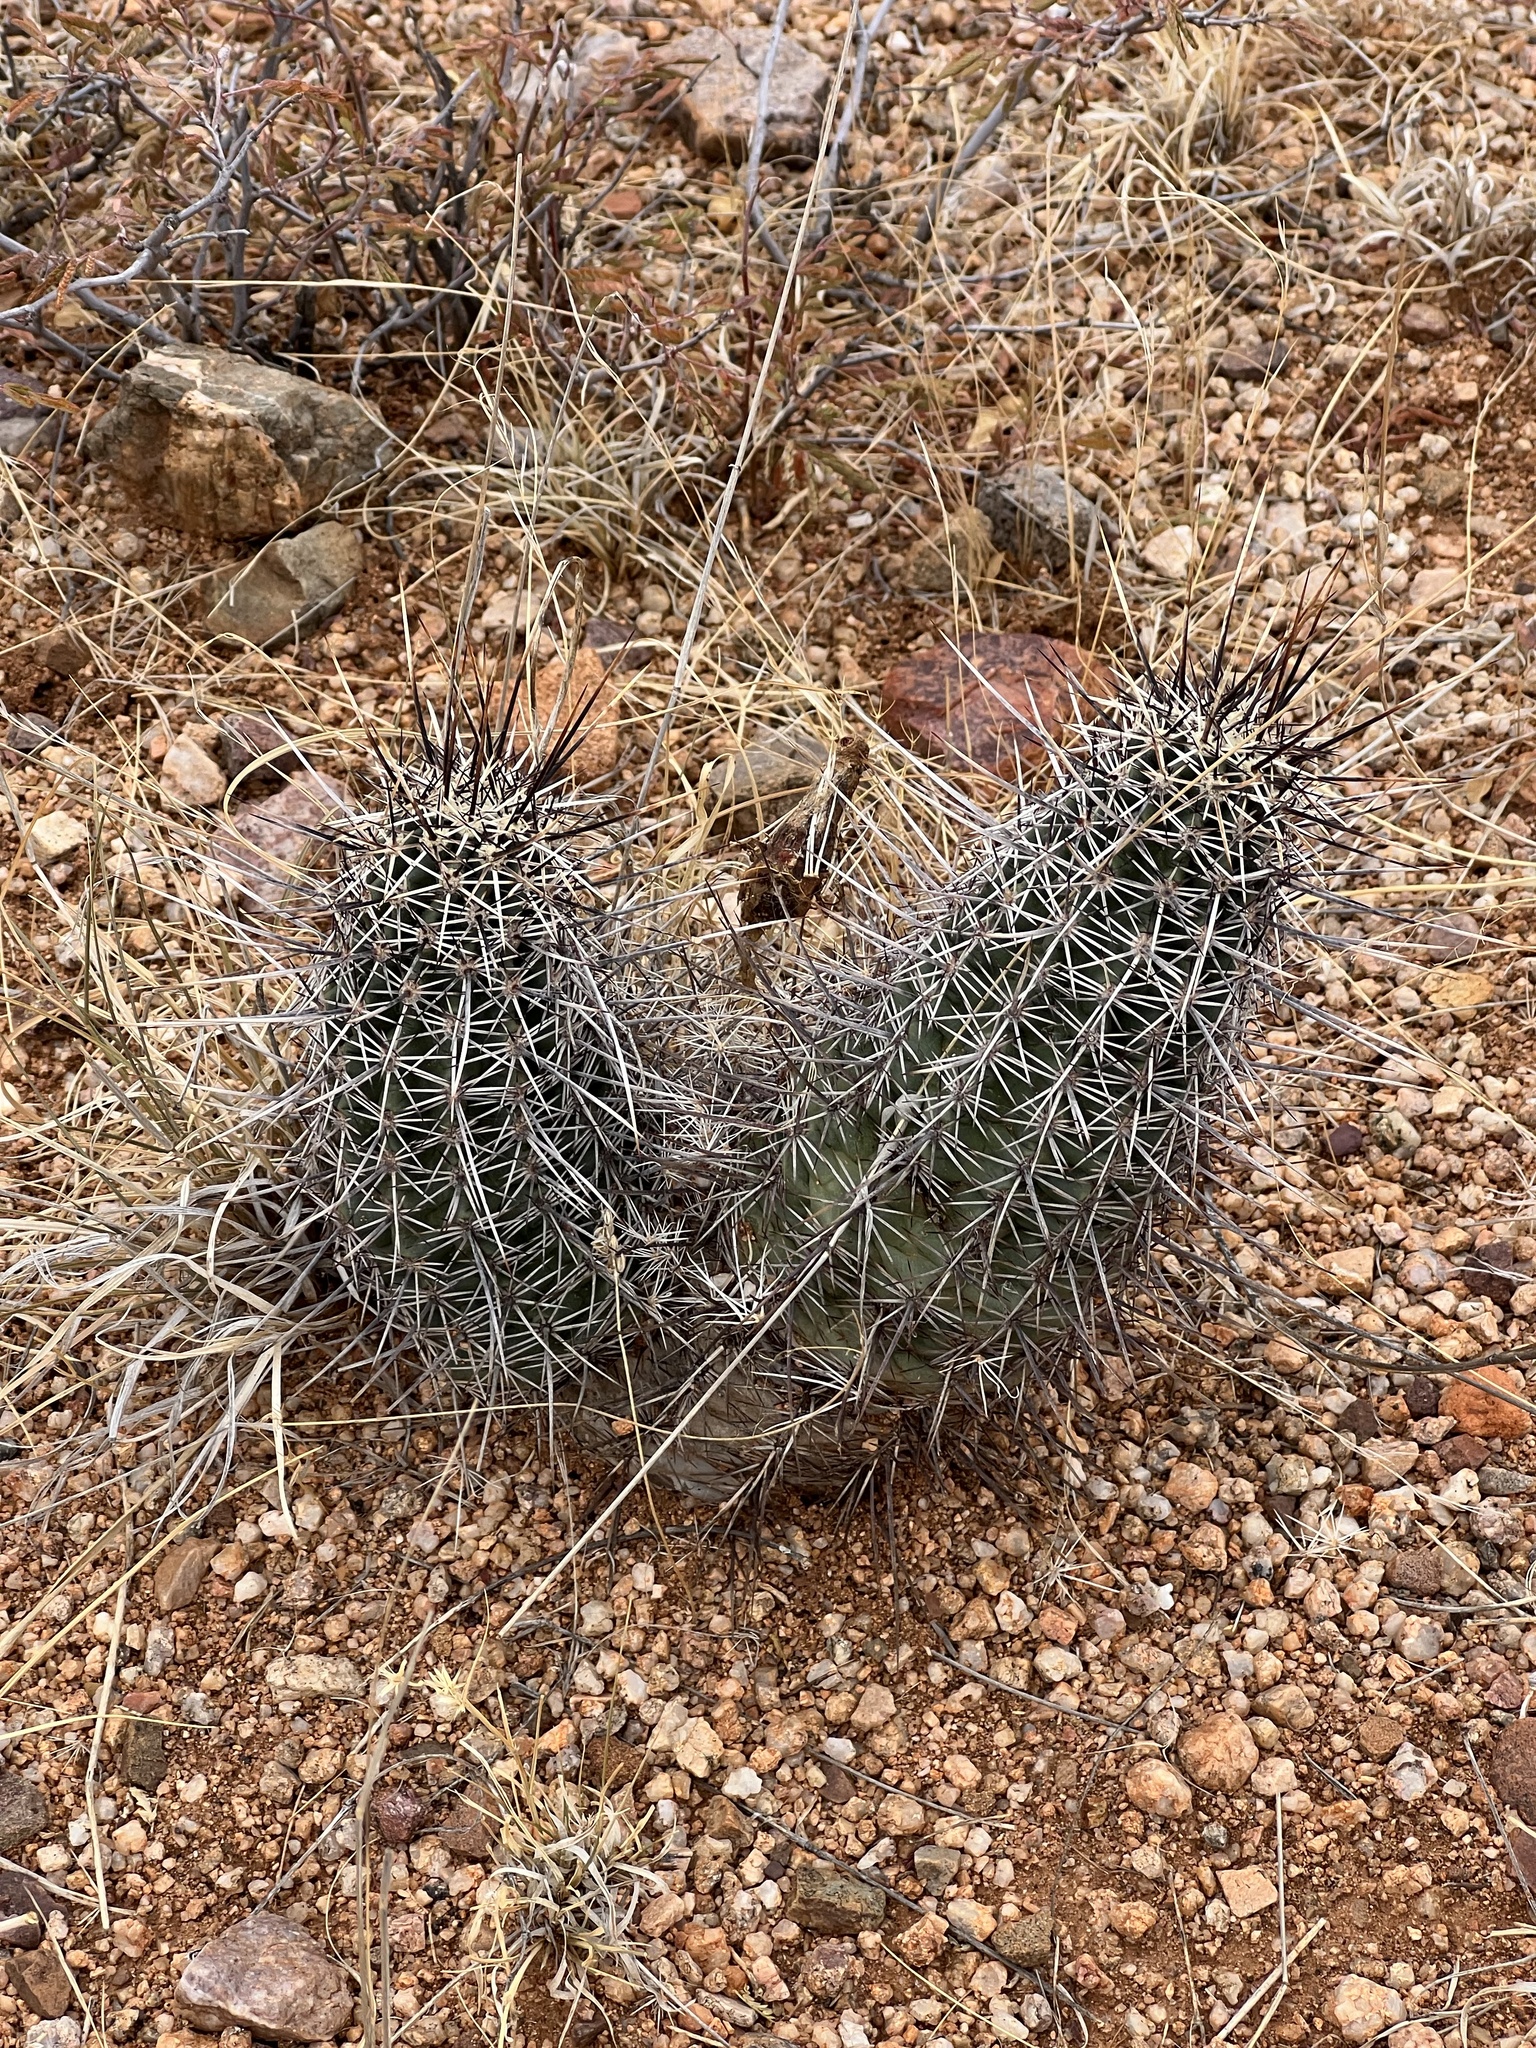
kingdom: Plantae
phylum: Tracheophyta
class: Magnoliopsida
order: Caryophyllales
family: Cactaceae
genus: Echinocereus
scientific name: Echinocereus fasciculatus
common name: Bundle hedgehog
